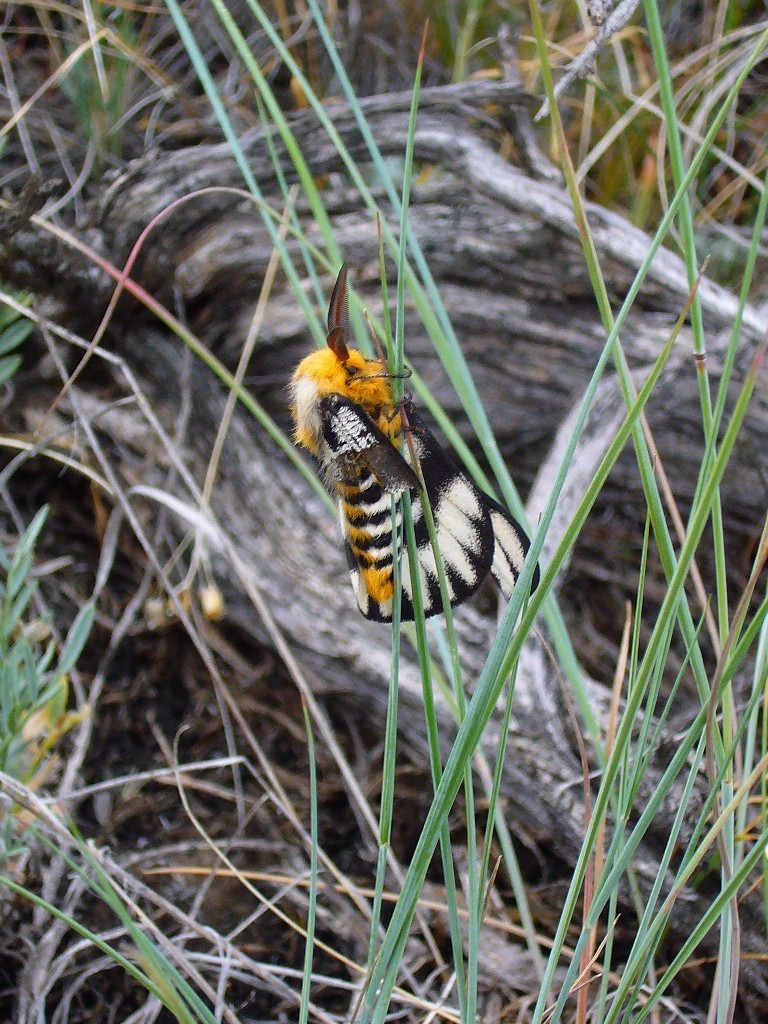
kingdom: Animalia
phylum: Arthropoda
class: Insecta
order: Lepidoptera
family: Saturniidae
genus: Hemileuca
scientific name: Hemileuca hera
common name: Hera sheepmoth
